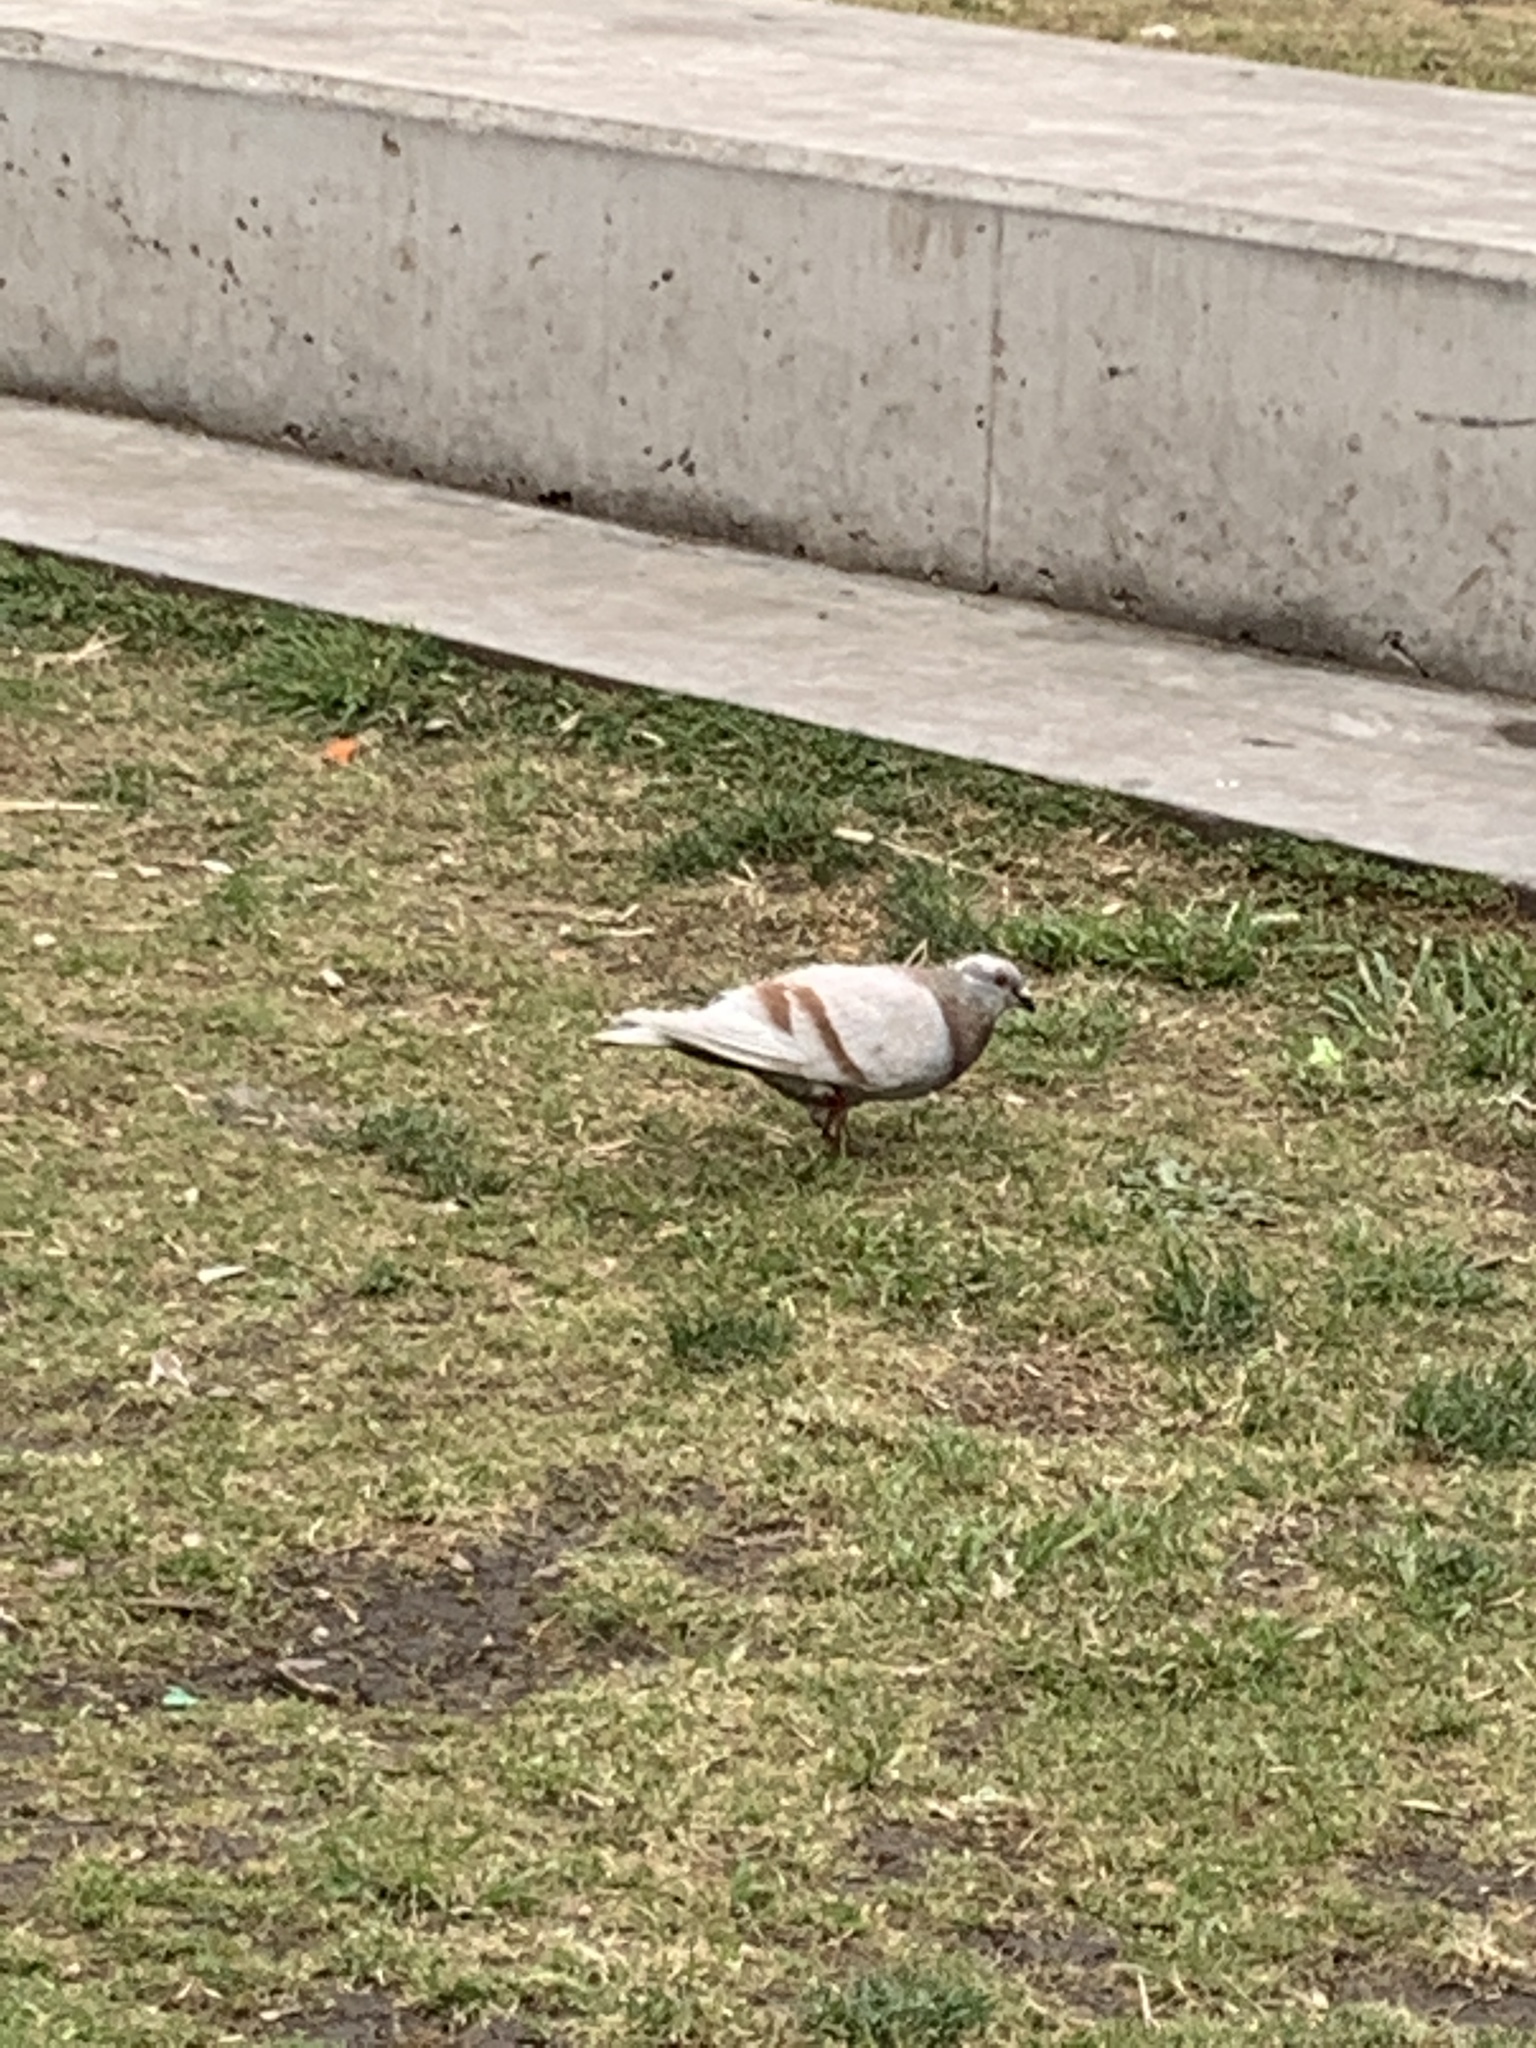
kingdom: Animalia
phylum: Chordata
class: Aves
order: Columbiformes
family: Columbidae
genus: Columba
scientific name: Columba livia
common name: Rock pigeon
